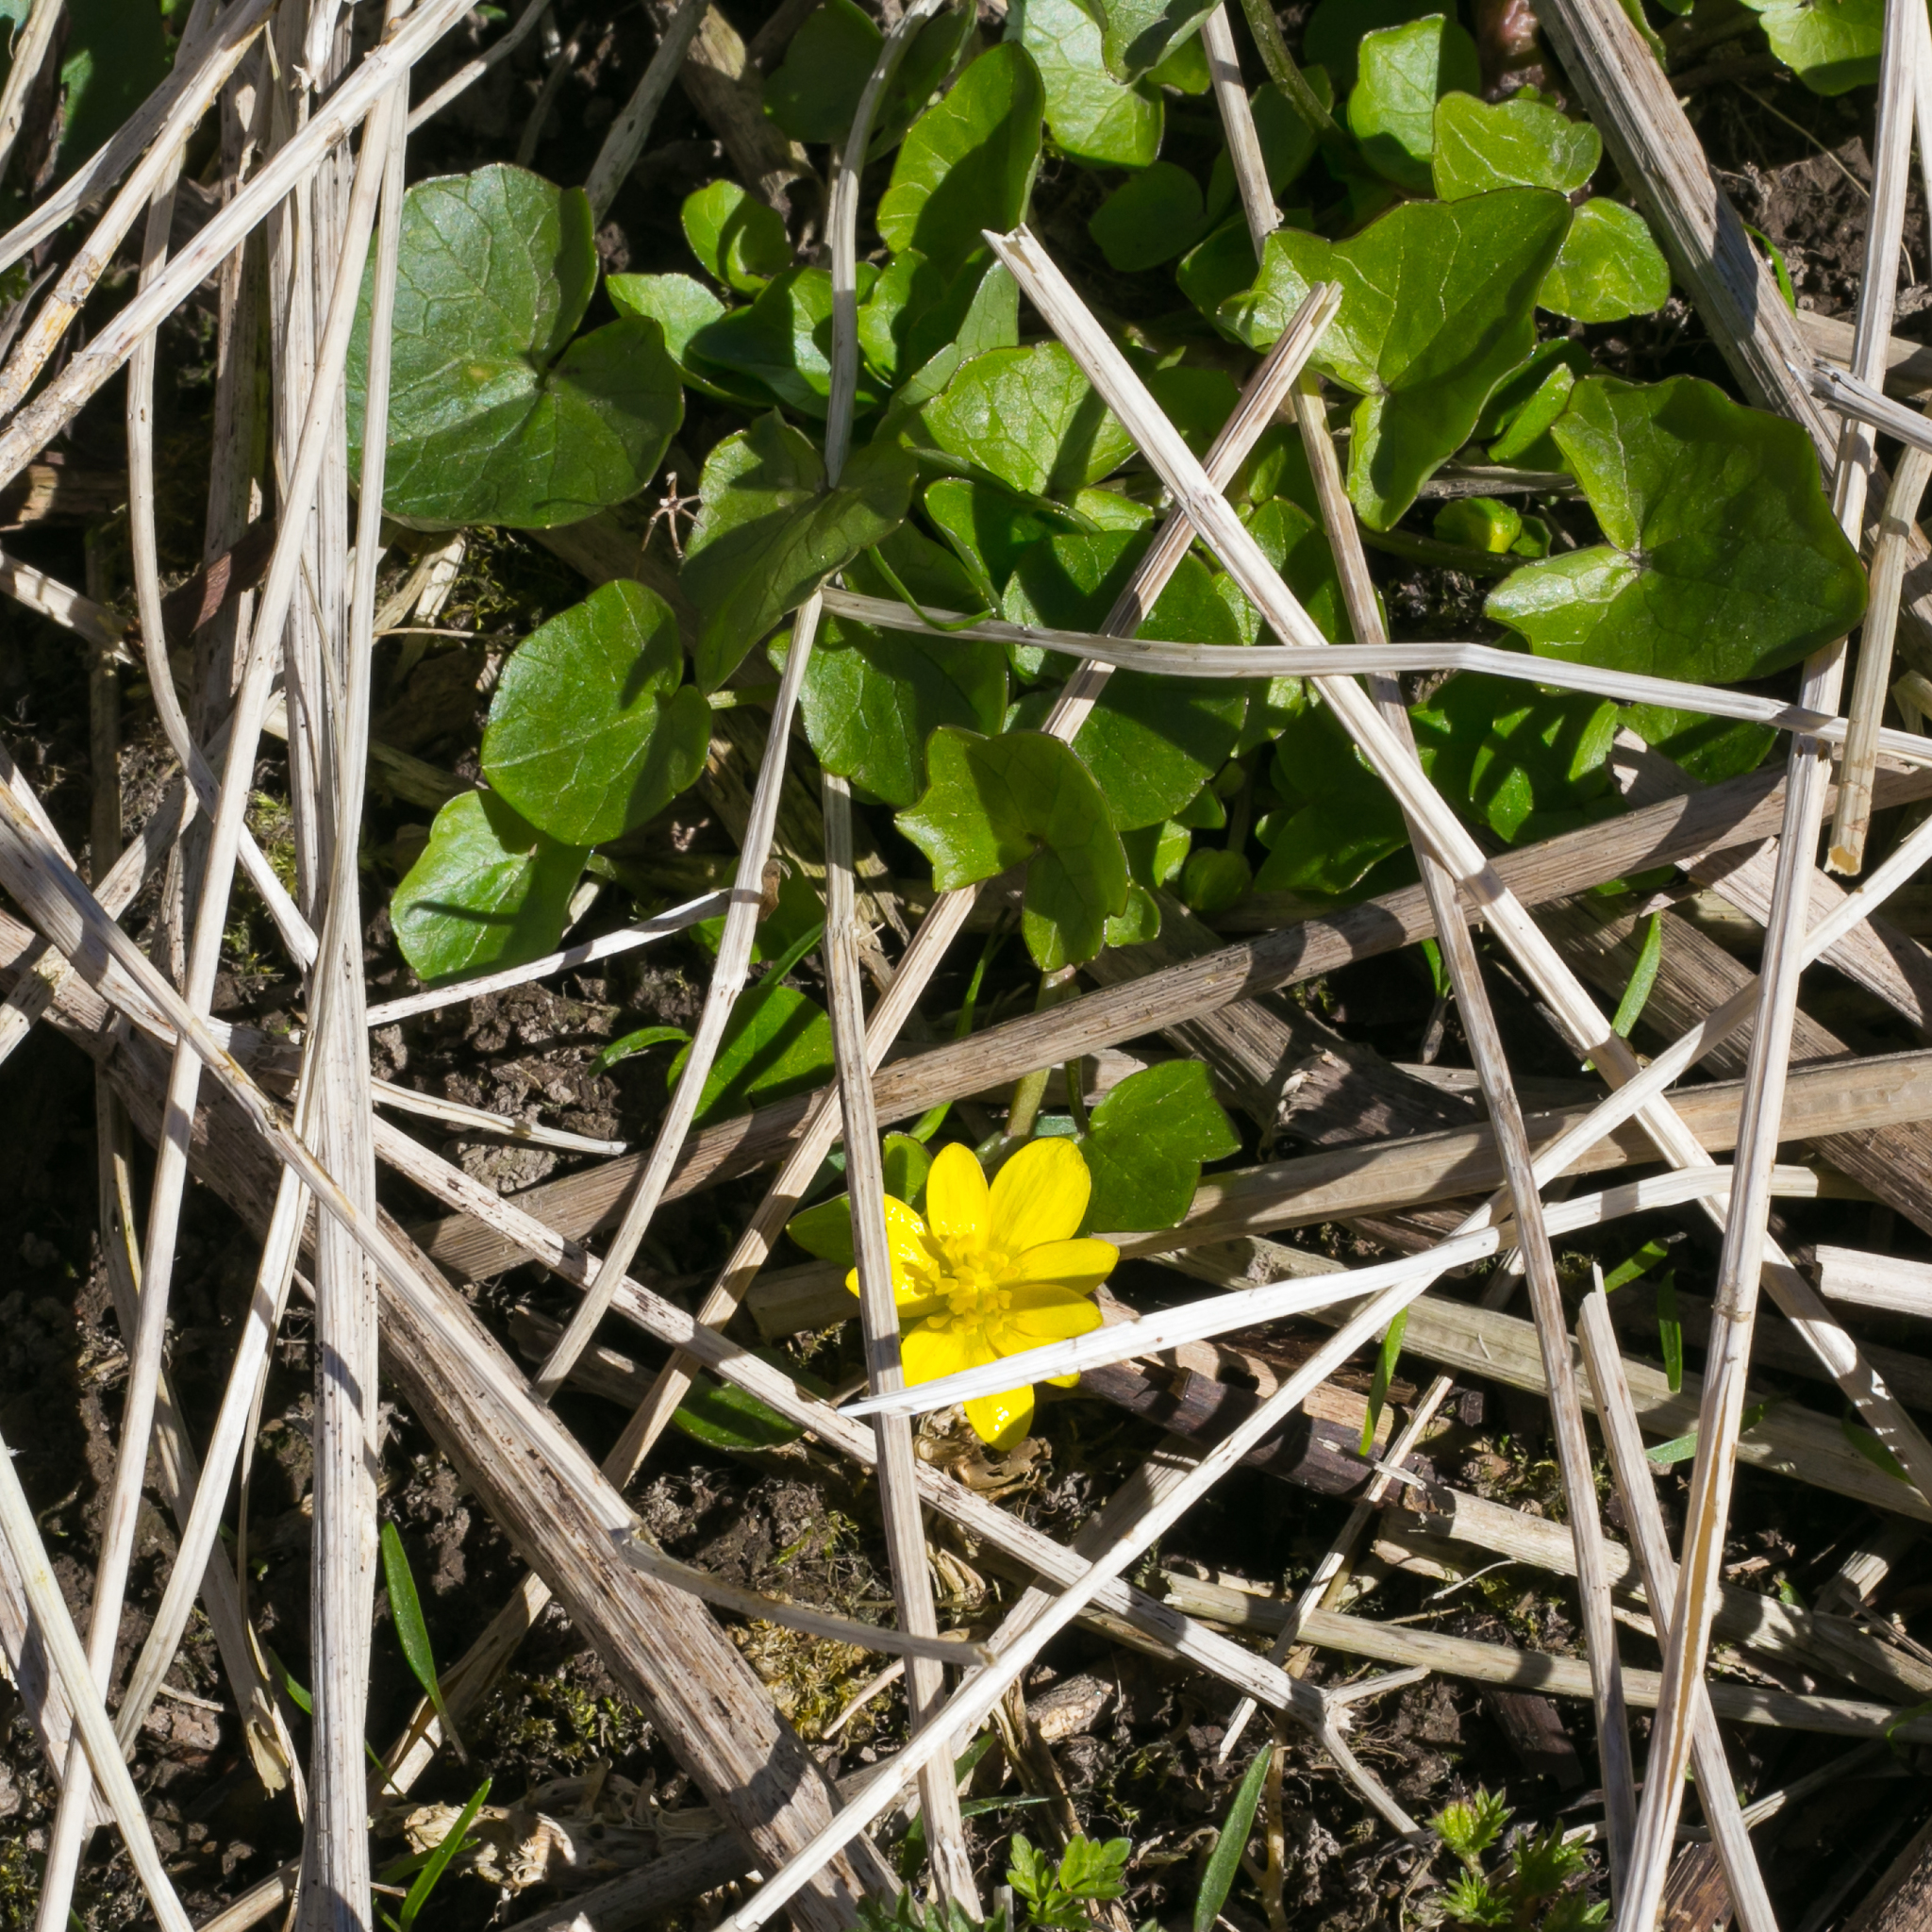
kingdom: Plantae
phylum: Tracheophyta
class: Magnoliopsida
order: Ranunculales
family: Ranunculaceae
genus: Ficaria
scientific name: Ficaria verna
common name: Lesser celandine
